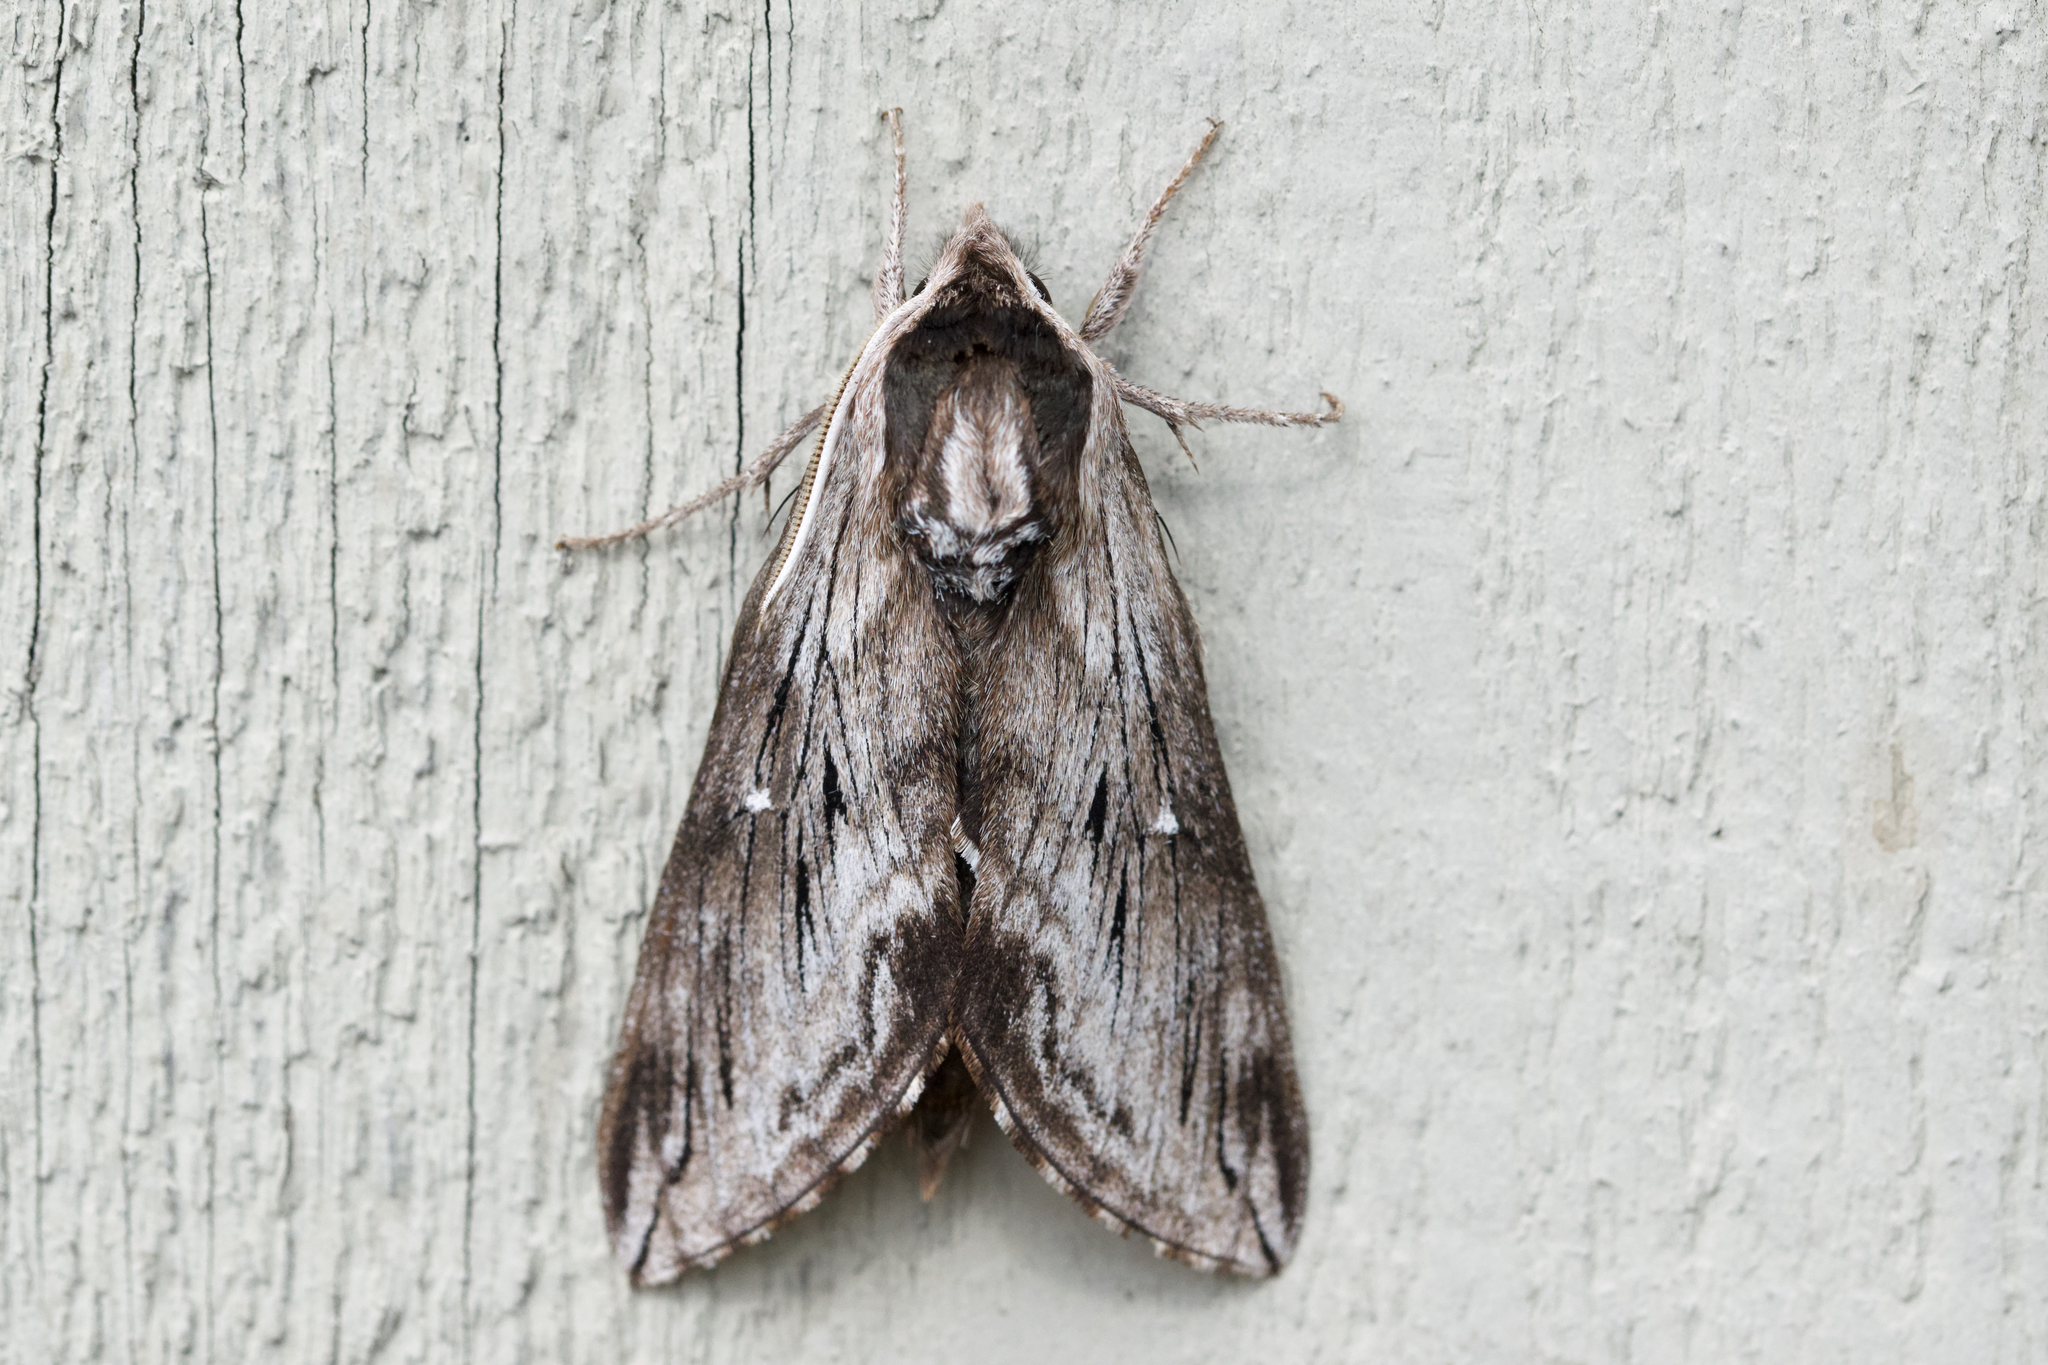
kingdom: Animalia
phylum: Arthropoda
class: Insecta
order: Lepidoptera
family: Sphingidae
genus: Sphinx
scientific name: Sphinx poecila
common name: Northern apple sphinx
